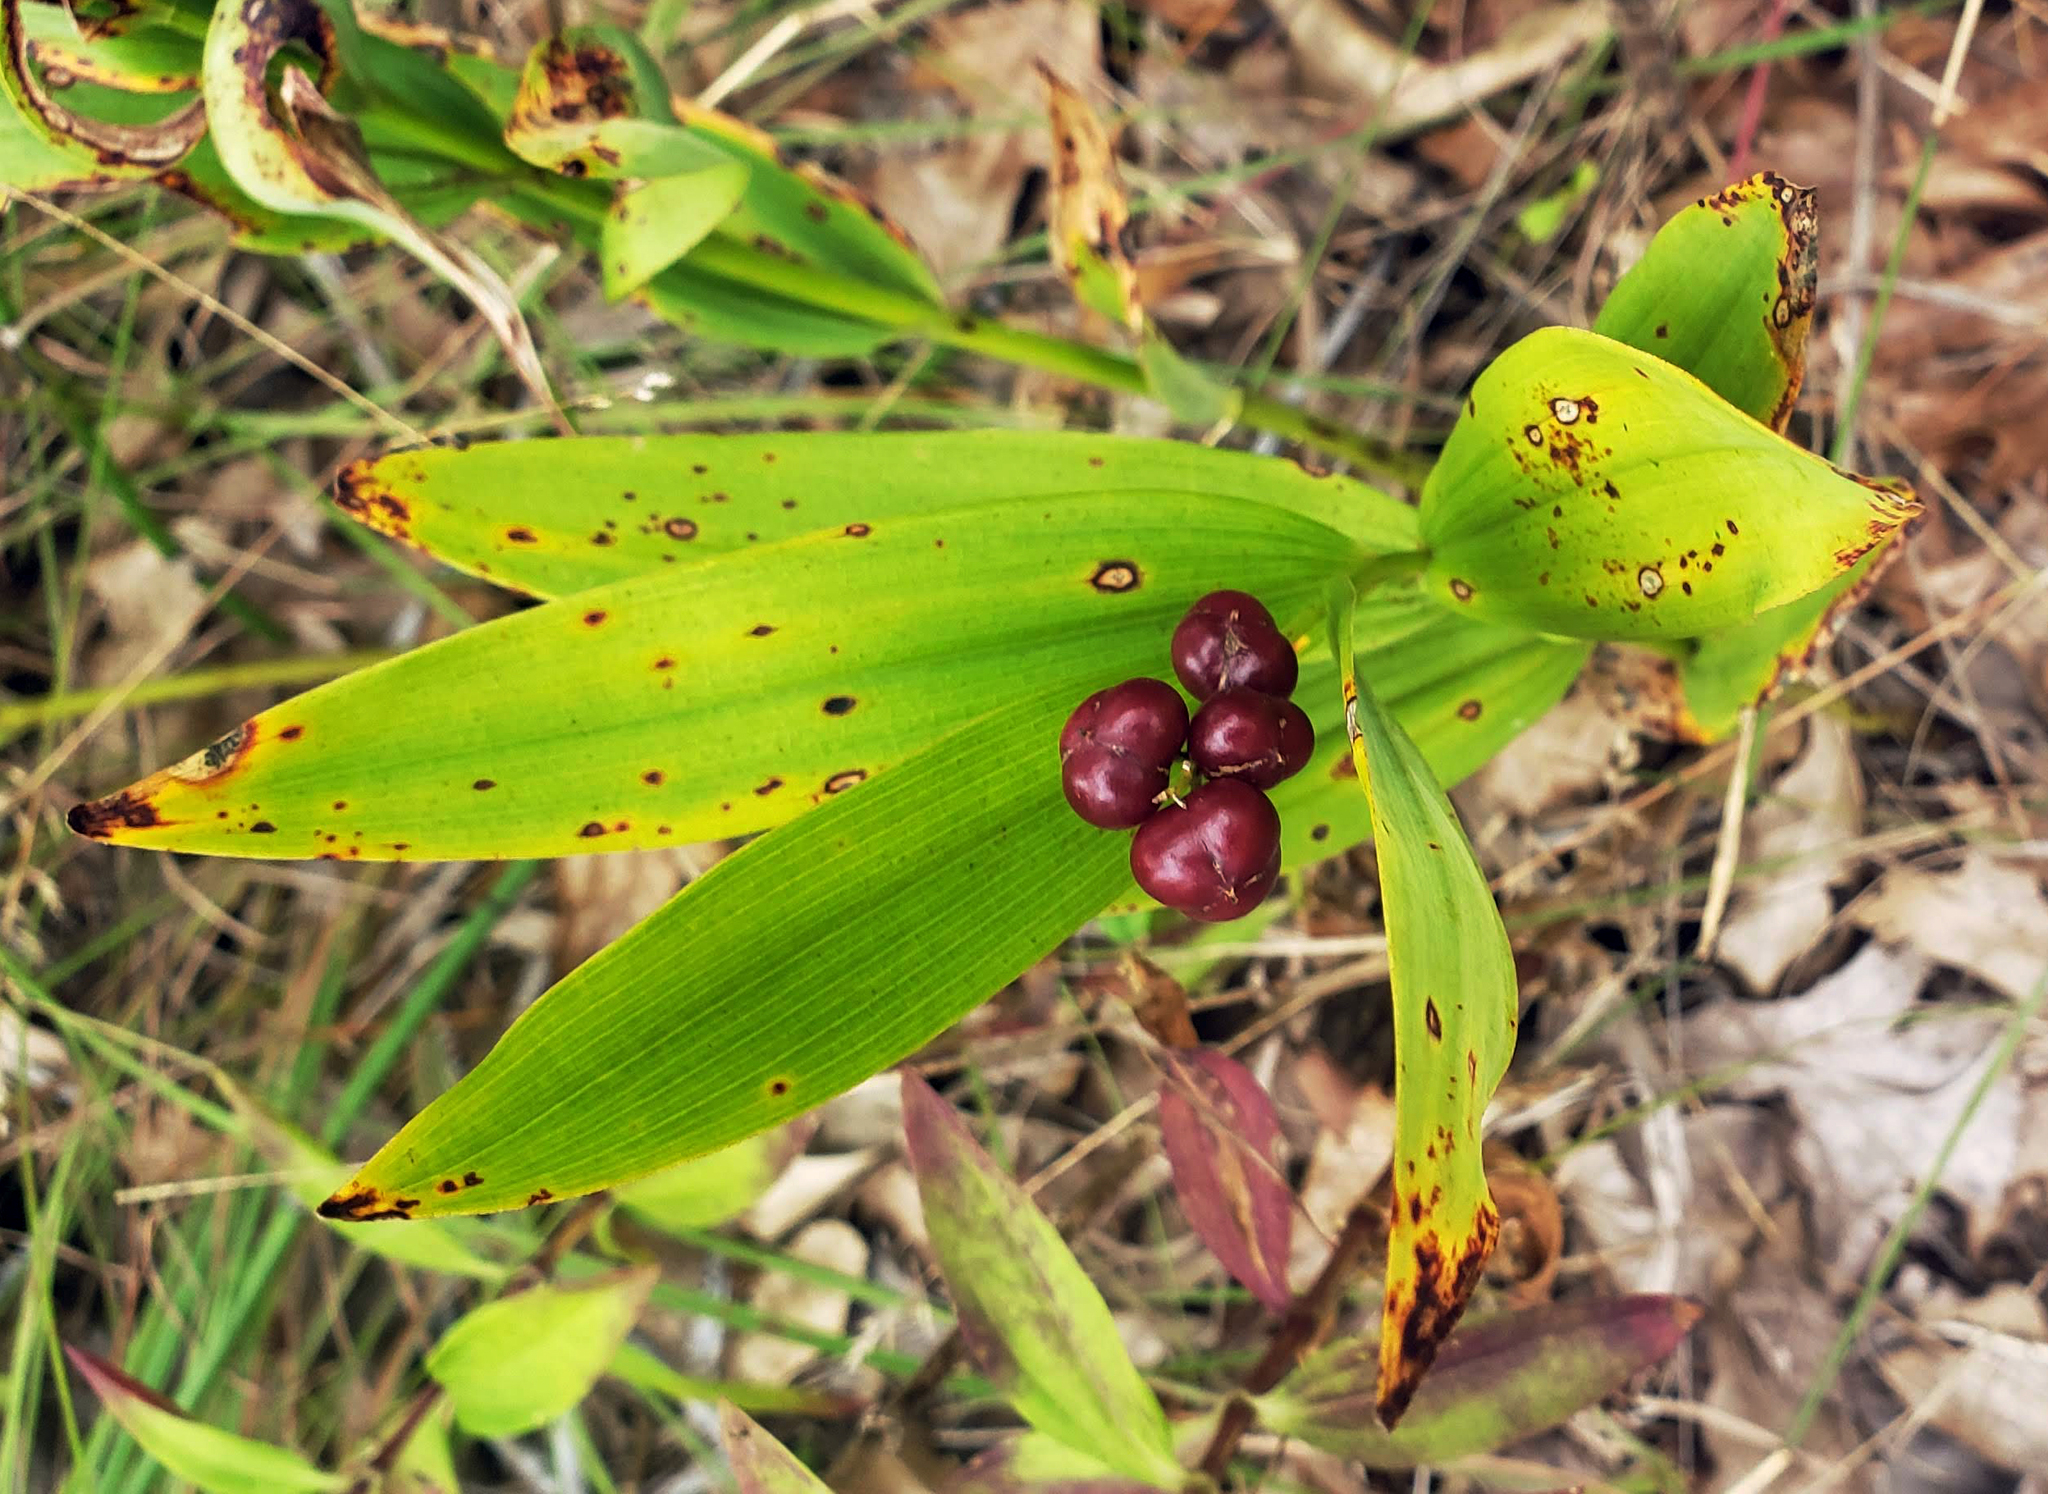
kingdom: Plantae
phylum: Tracheophyta
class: Liliopsida
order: Asparagales
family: Asparagaceae
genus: Maianthemum
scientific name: Maianthemum stellatum
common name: Little false solomon's seal
